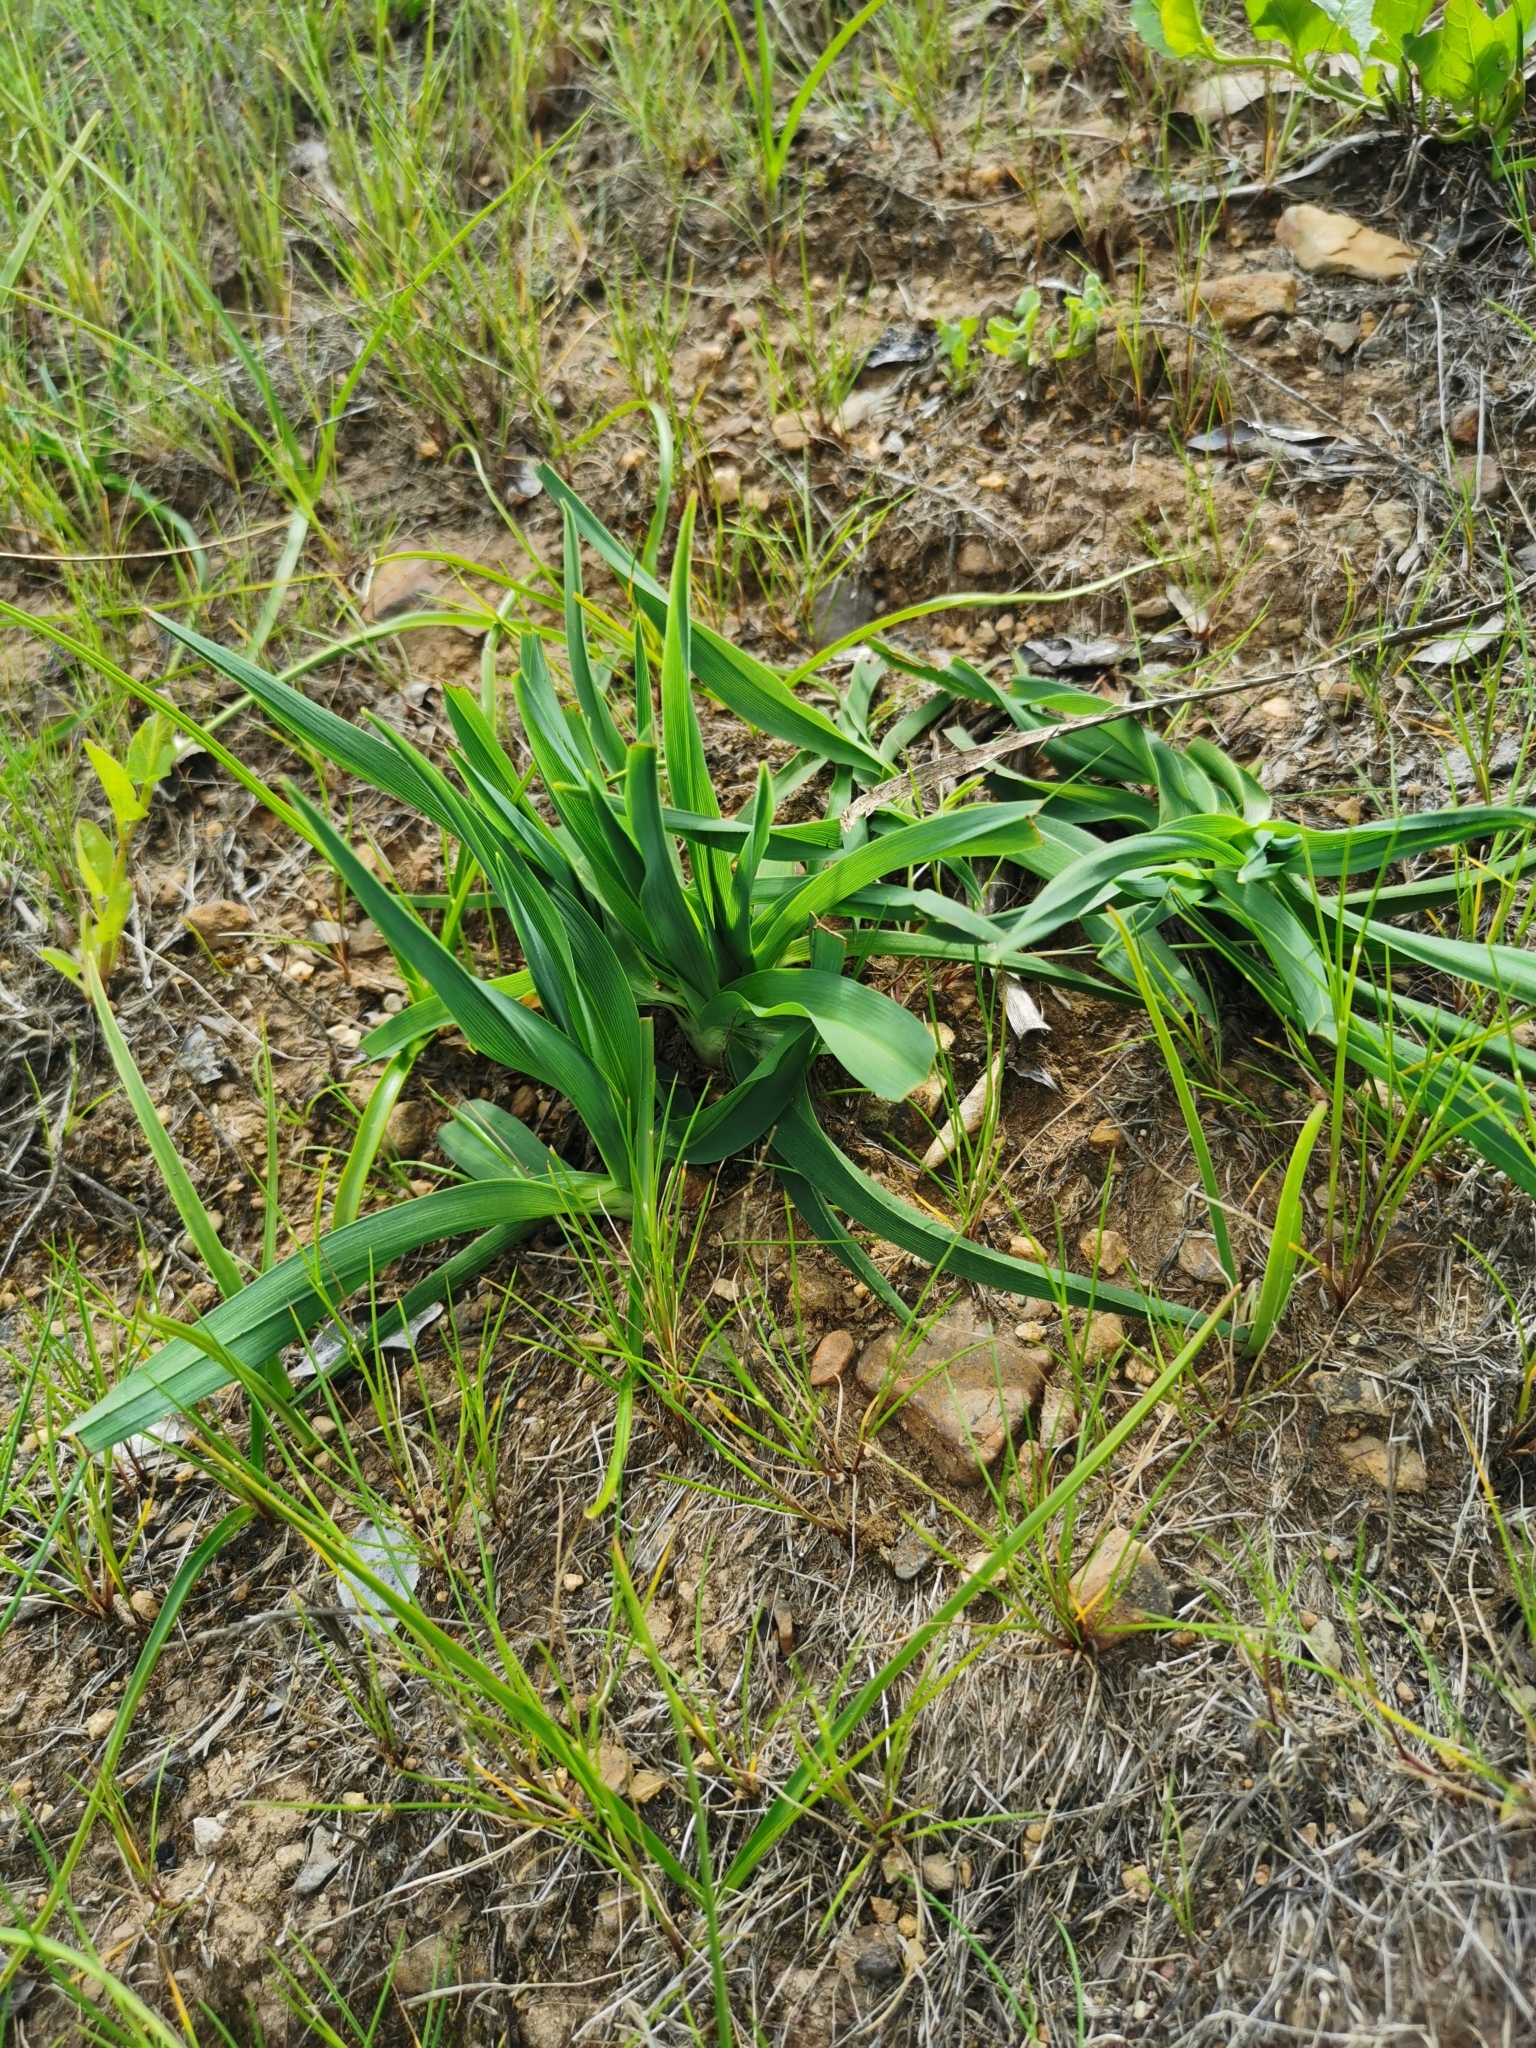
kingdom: Plantae
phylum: Tracheophyta
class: Liliopsida
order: Asparagales
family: Asphodelaceae
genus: Pasithea
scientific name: Pasithea caerulea
